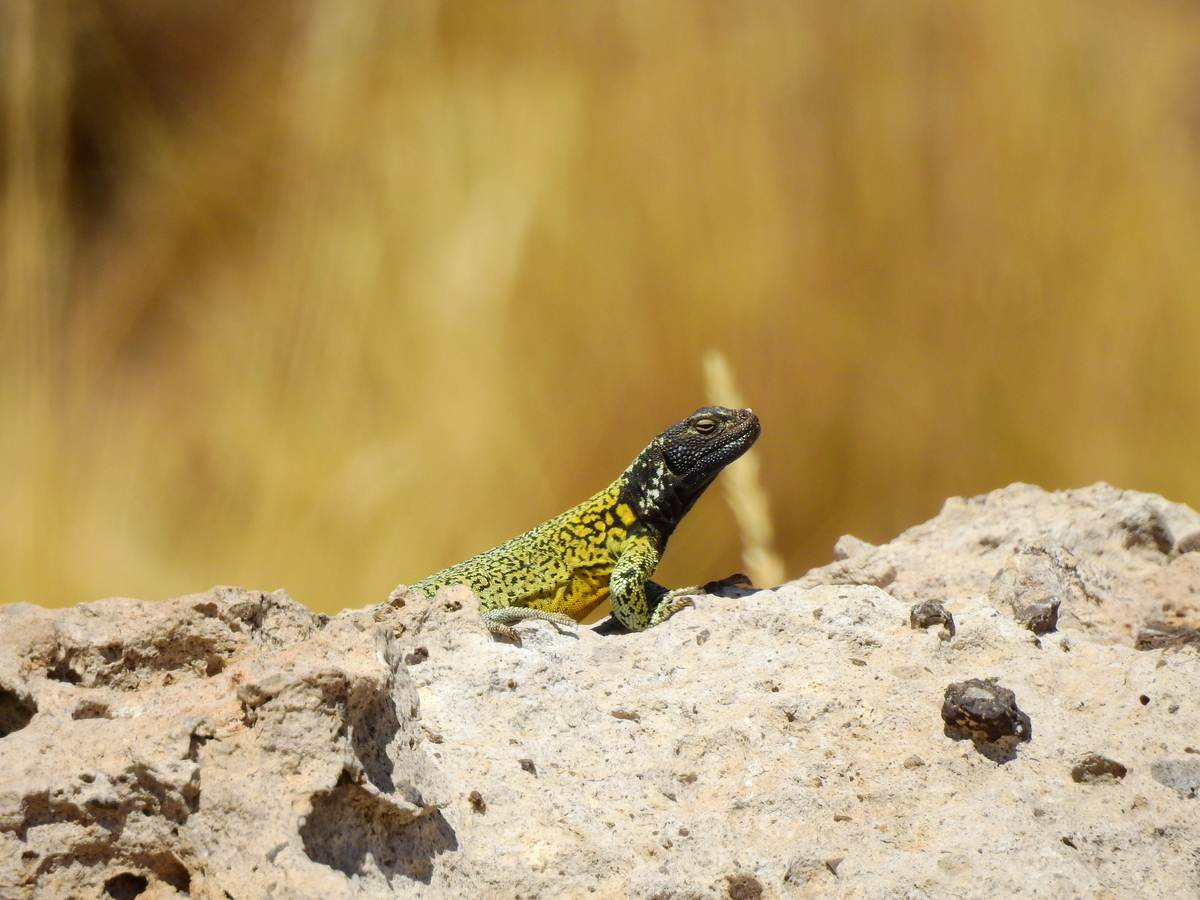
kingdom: Animalia
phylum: Chordata
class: Squamata
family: Liolaemidae
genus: Phymaturus
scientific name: Phymaturus verdugo
